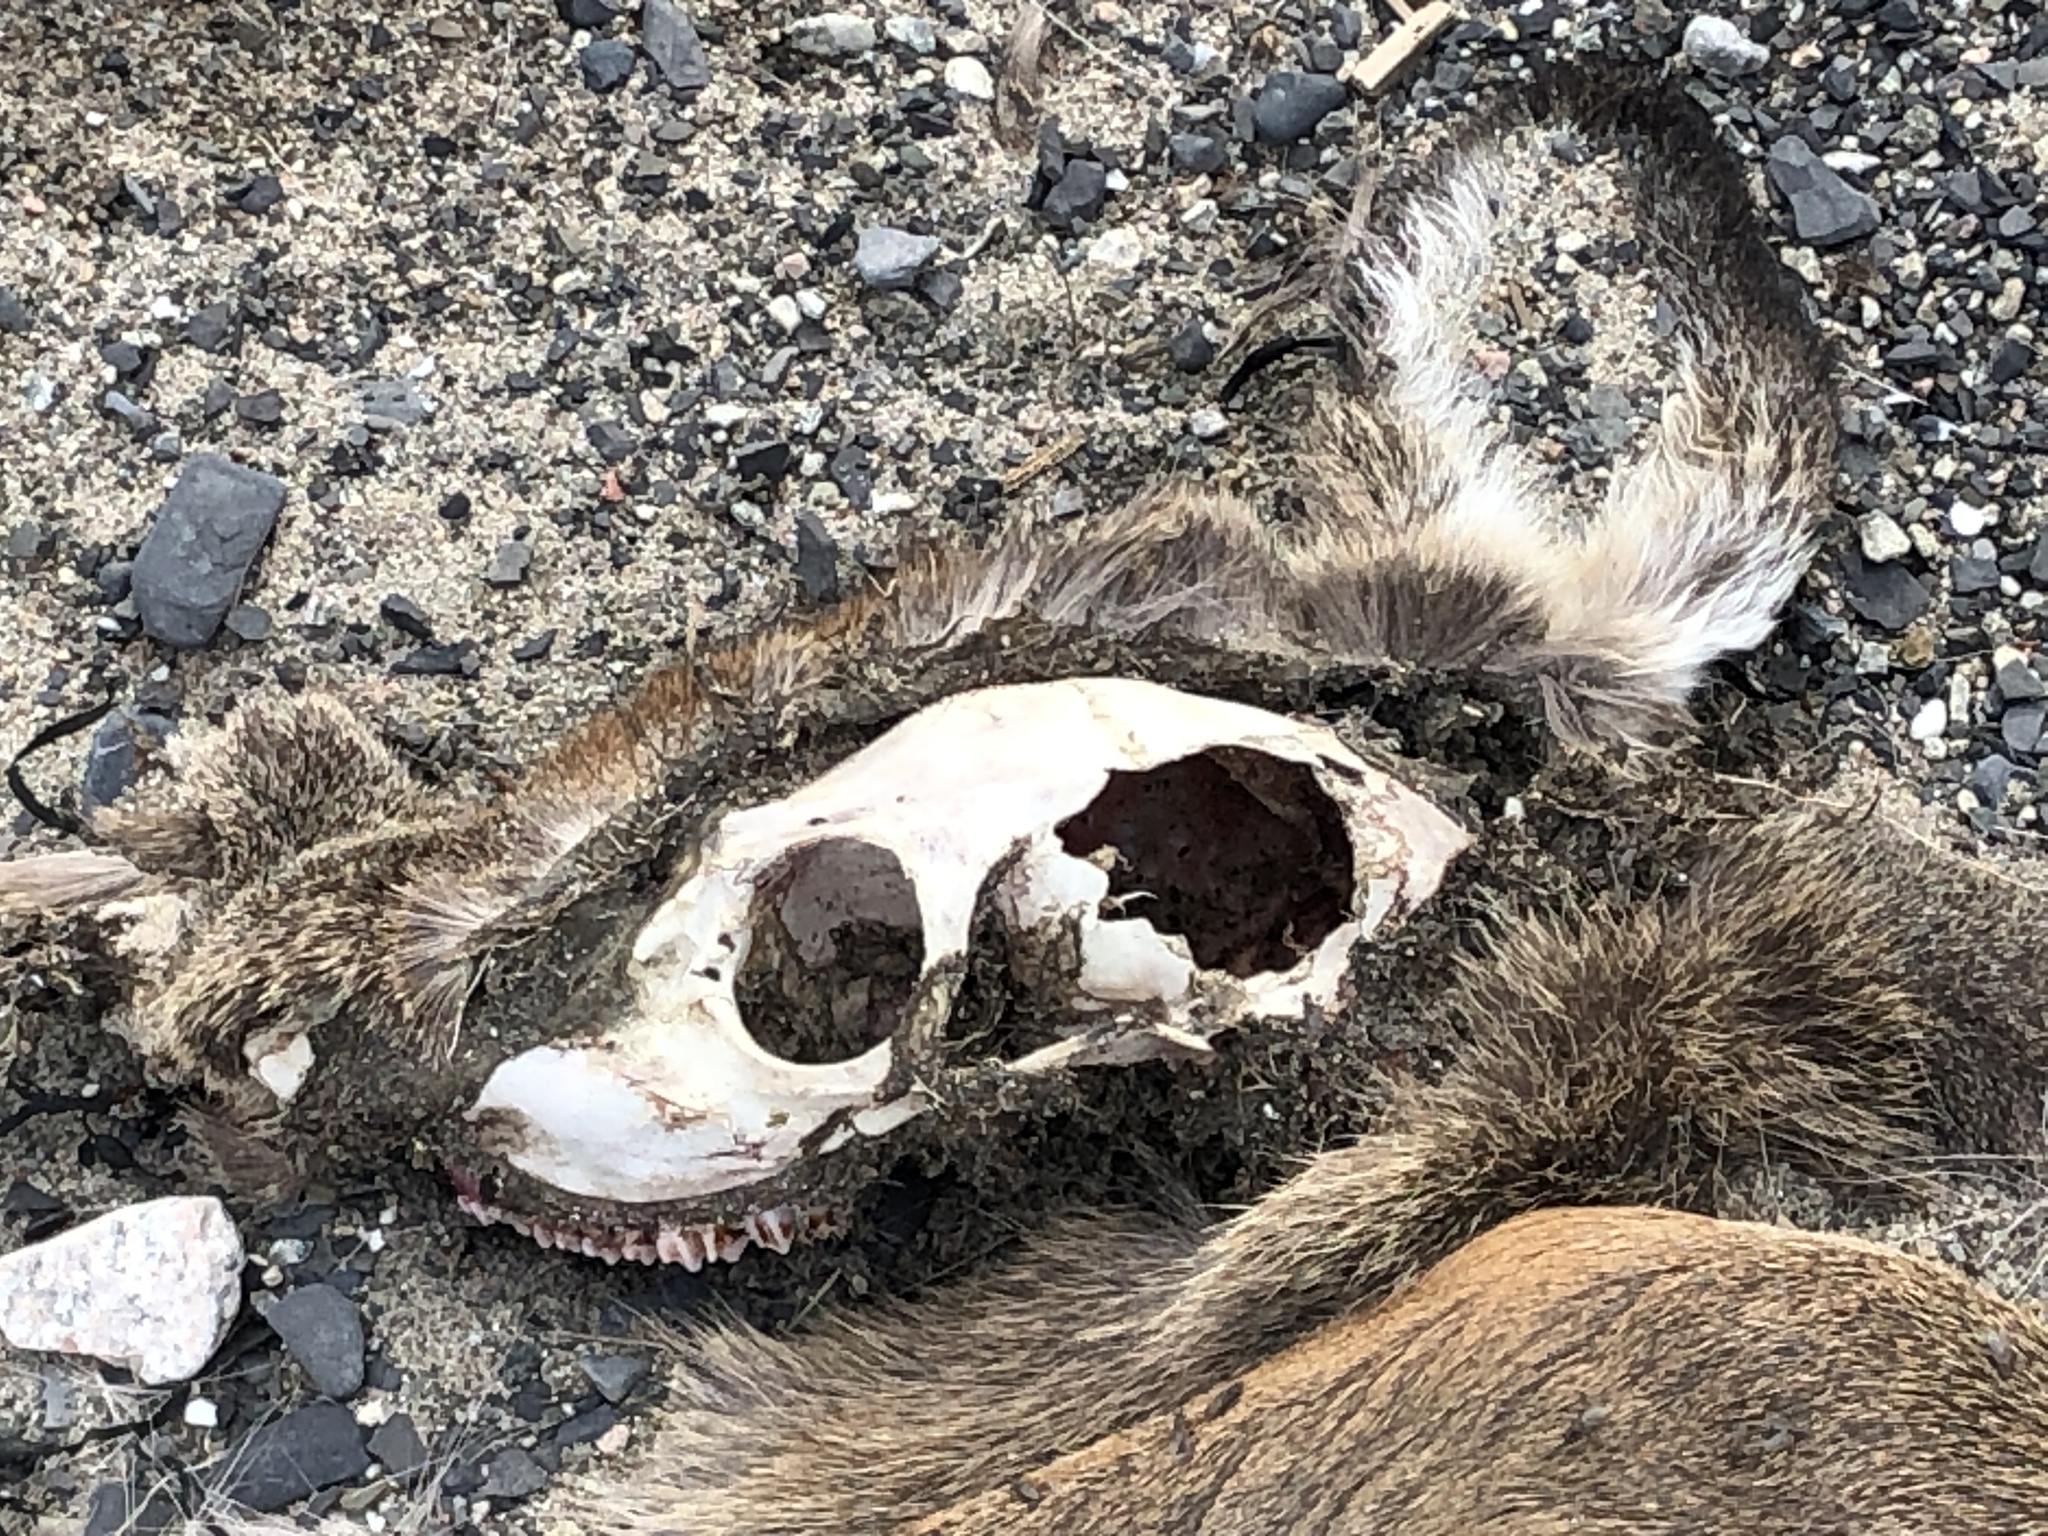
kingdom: Animalia
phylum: Chordata
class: Mammalia
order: Artiodactyla
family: Cervidae
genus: Odocoileus
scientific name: Odocoileus virginianus
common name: White-tailed deer
